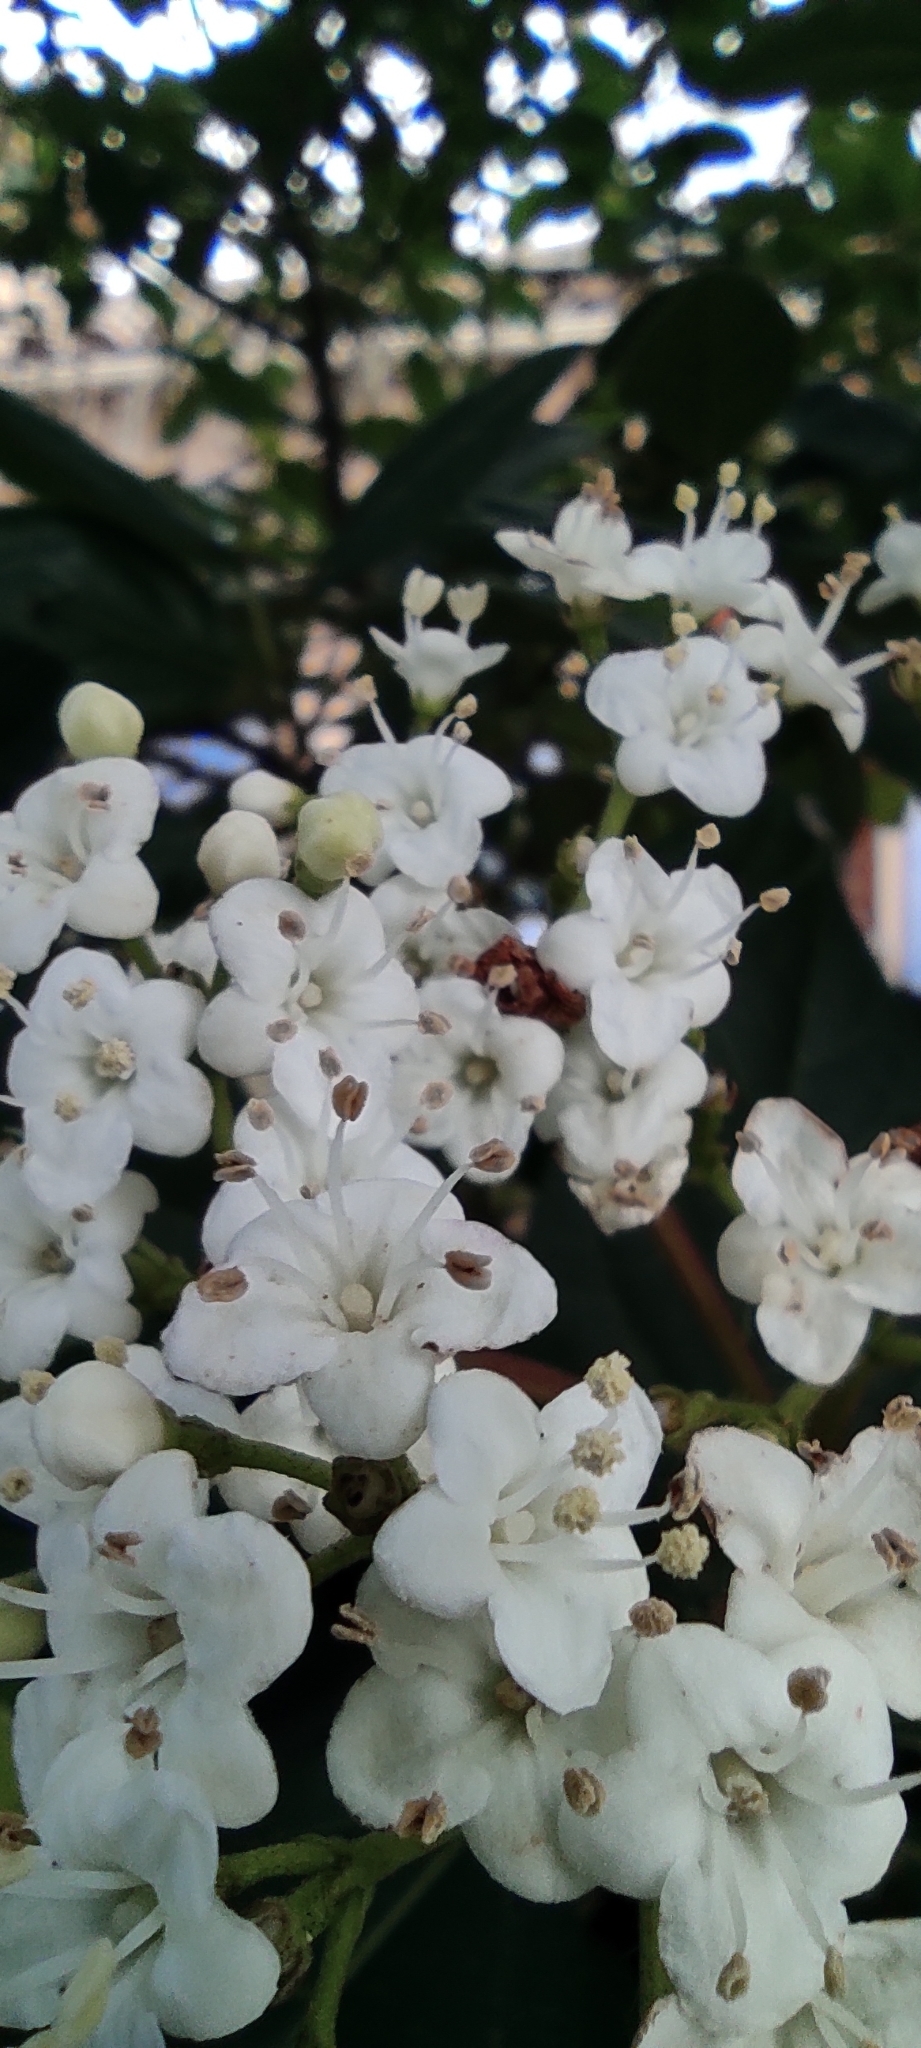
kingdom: Plantae
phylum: Tracheophyta
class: Magnoliopsida
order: Dipsacales
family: Viburnaceae
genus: Viburnum
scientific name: Viburnum tinus
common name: Laurustinus
